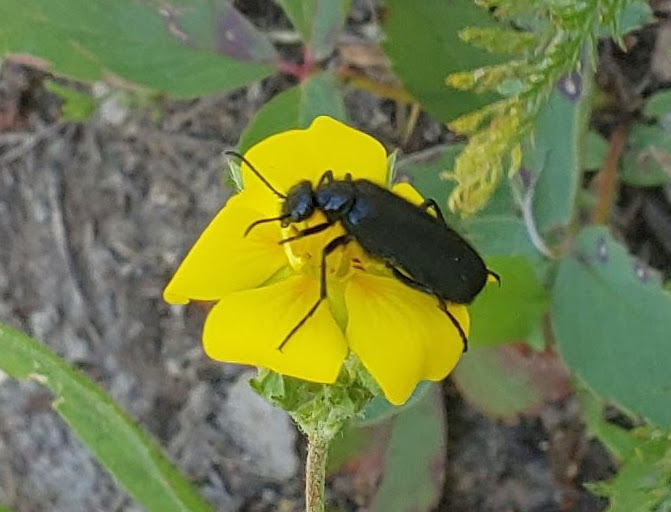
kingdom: Animalia
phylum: Arthropoda
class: Insecta
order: Coleoptera
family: Meloidae
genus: Epicauta
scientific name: Epicauta puncticollis
